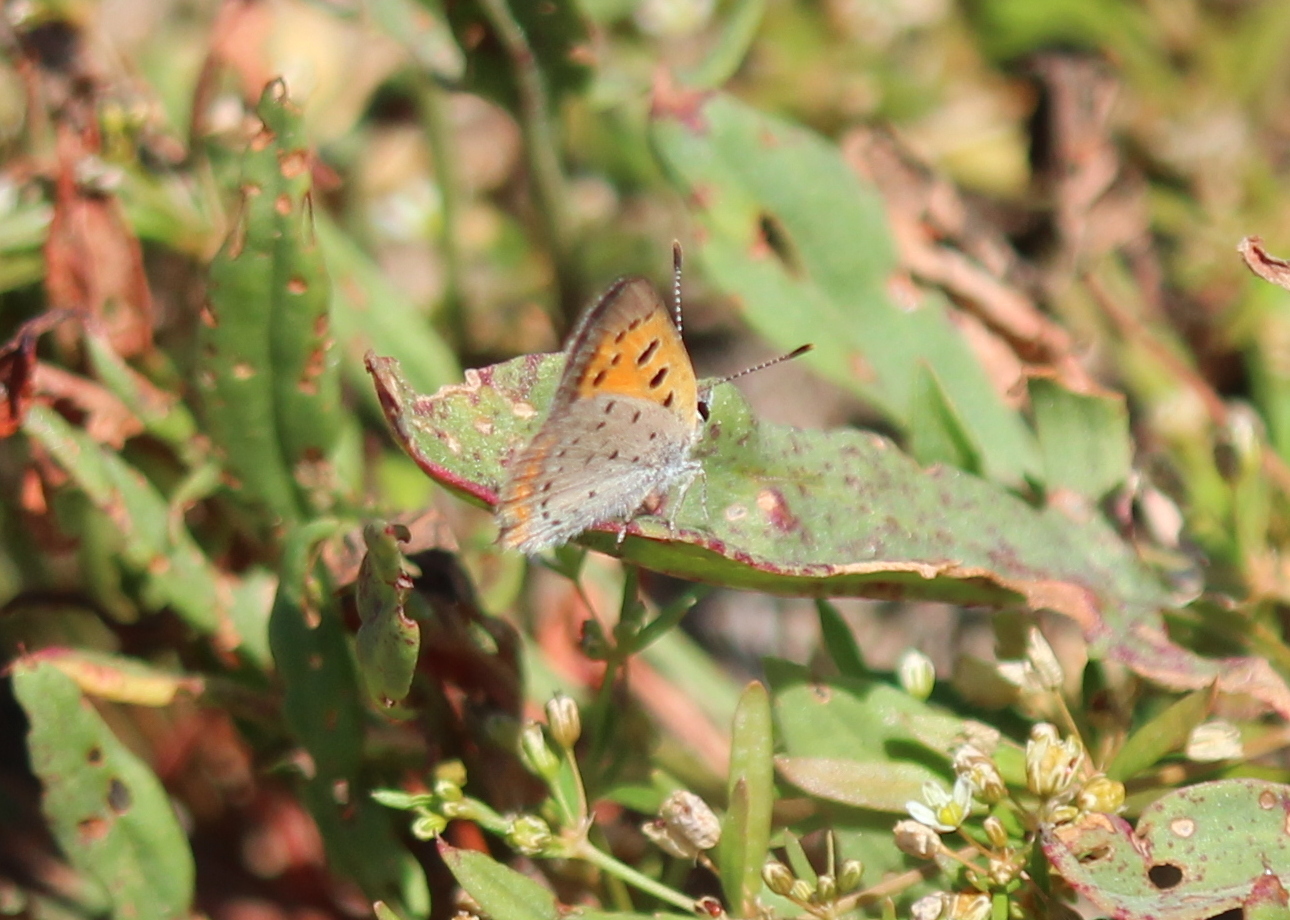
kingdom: Animalia
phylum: Arthropoda
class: Insecta
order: Lepidoptera
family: Lycaenidae
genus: Lycaena
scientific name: Lycaena hypophlaeas
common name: American copper
